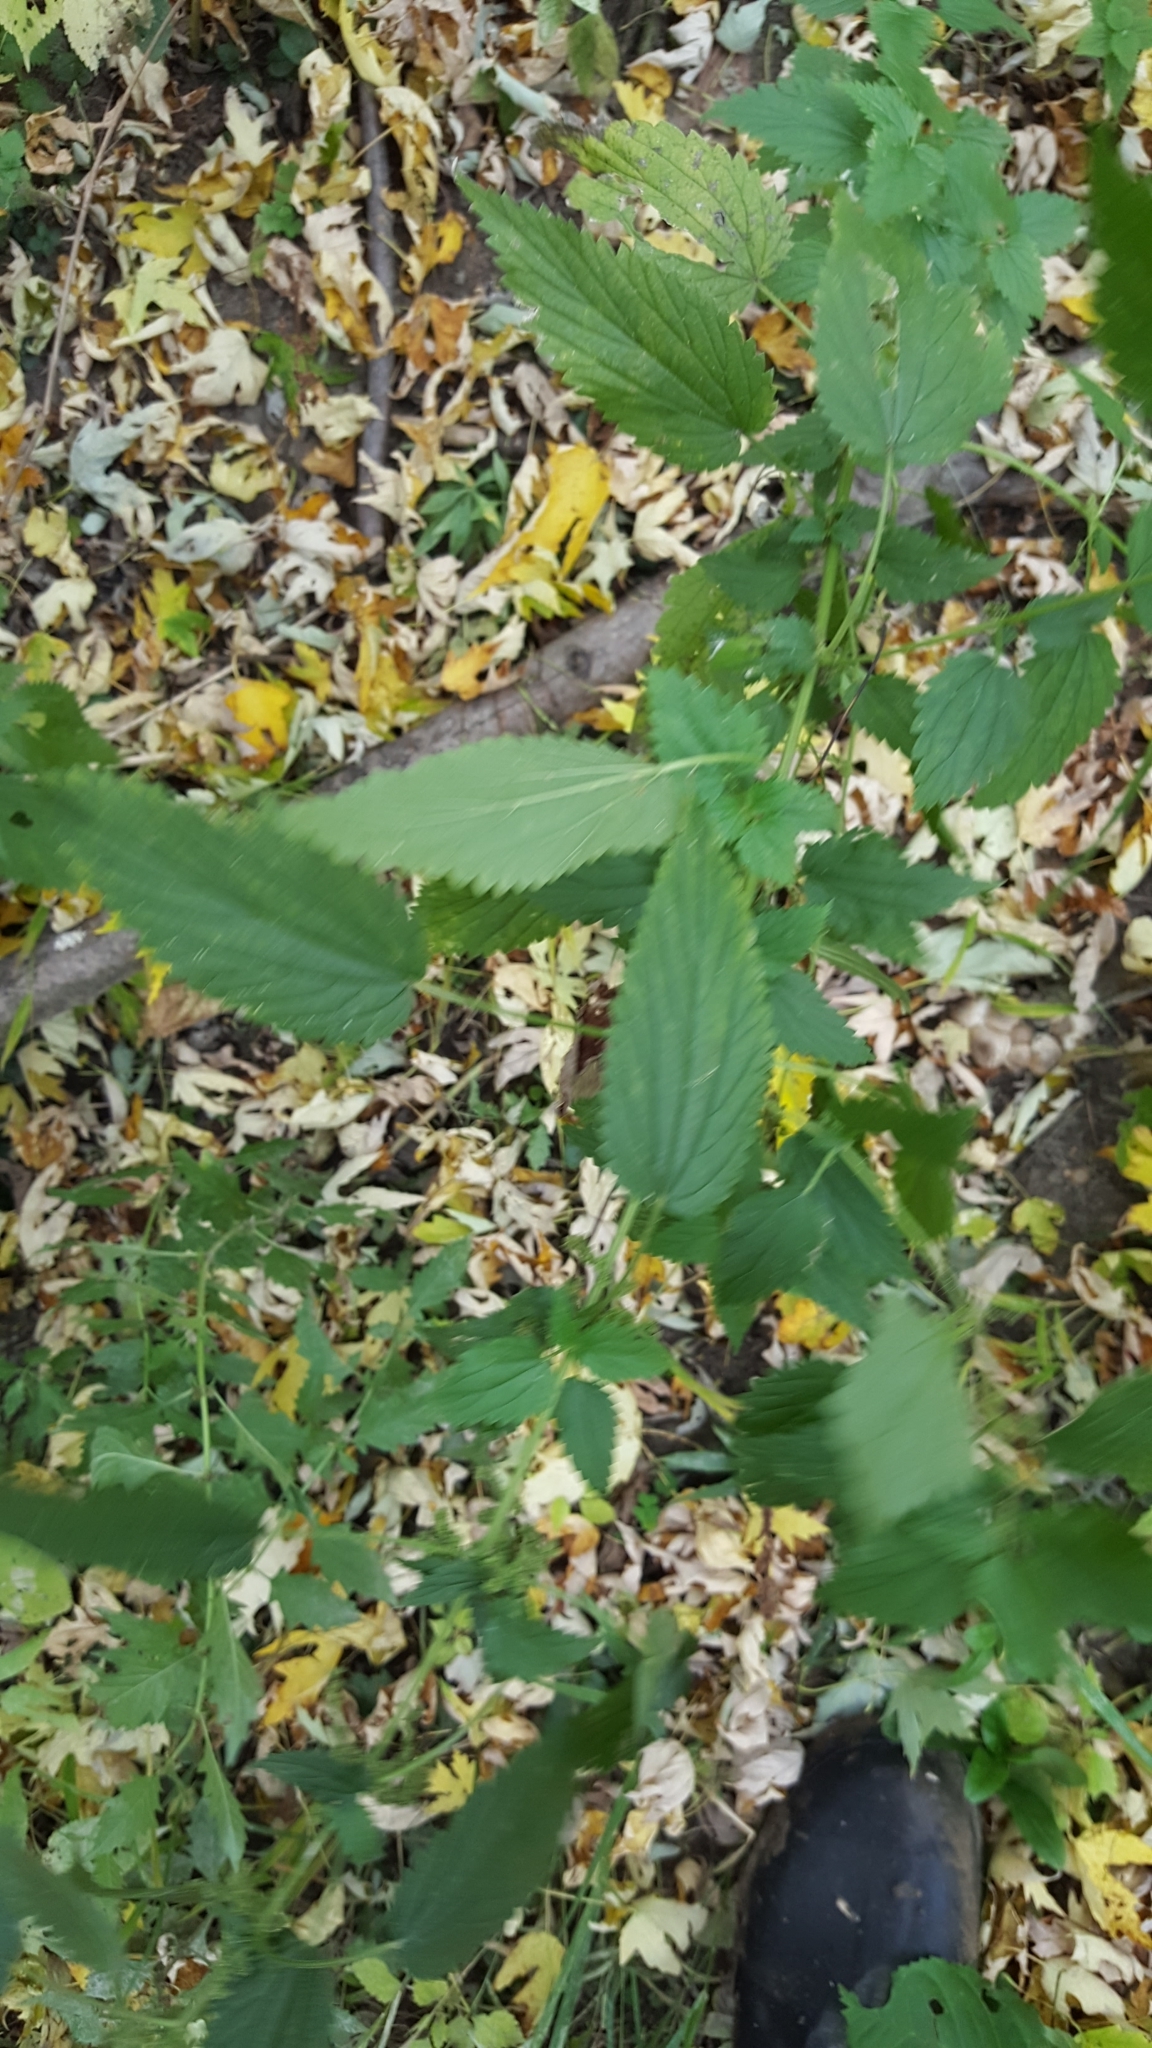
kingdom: Plantae
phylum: Tracheophyta
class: Magnoliopsida
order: Rosales
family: Urticaceae
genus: Urtica
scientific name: Urtica dioica
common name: Common nettle
